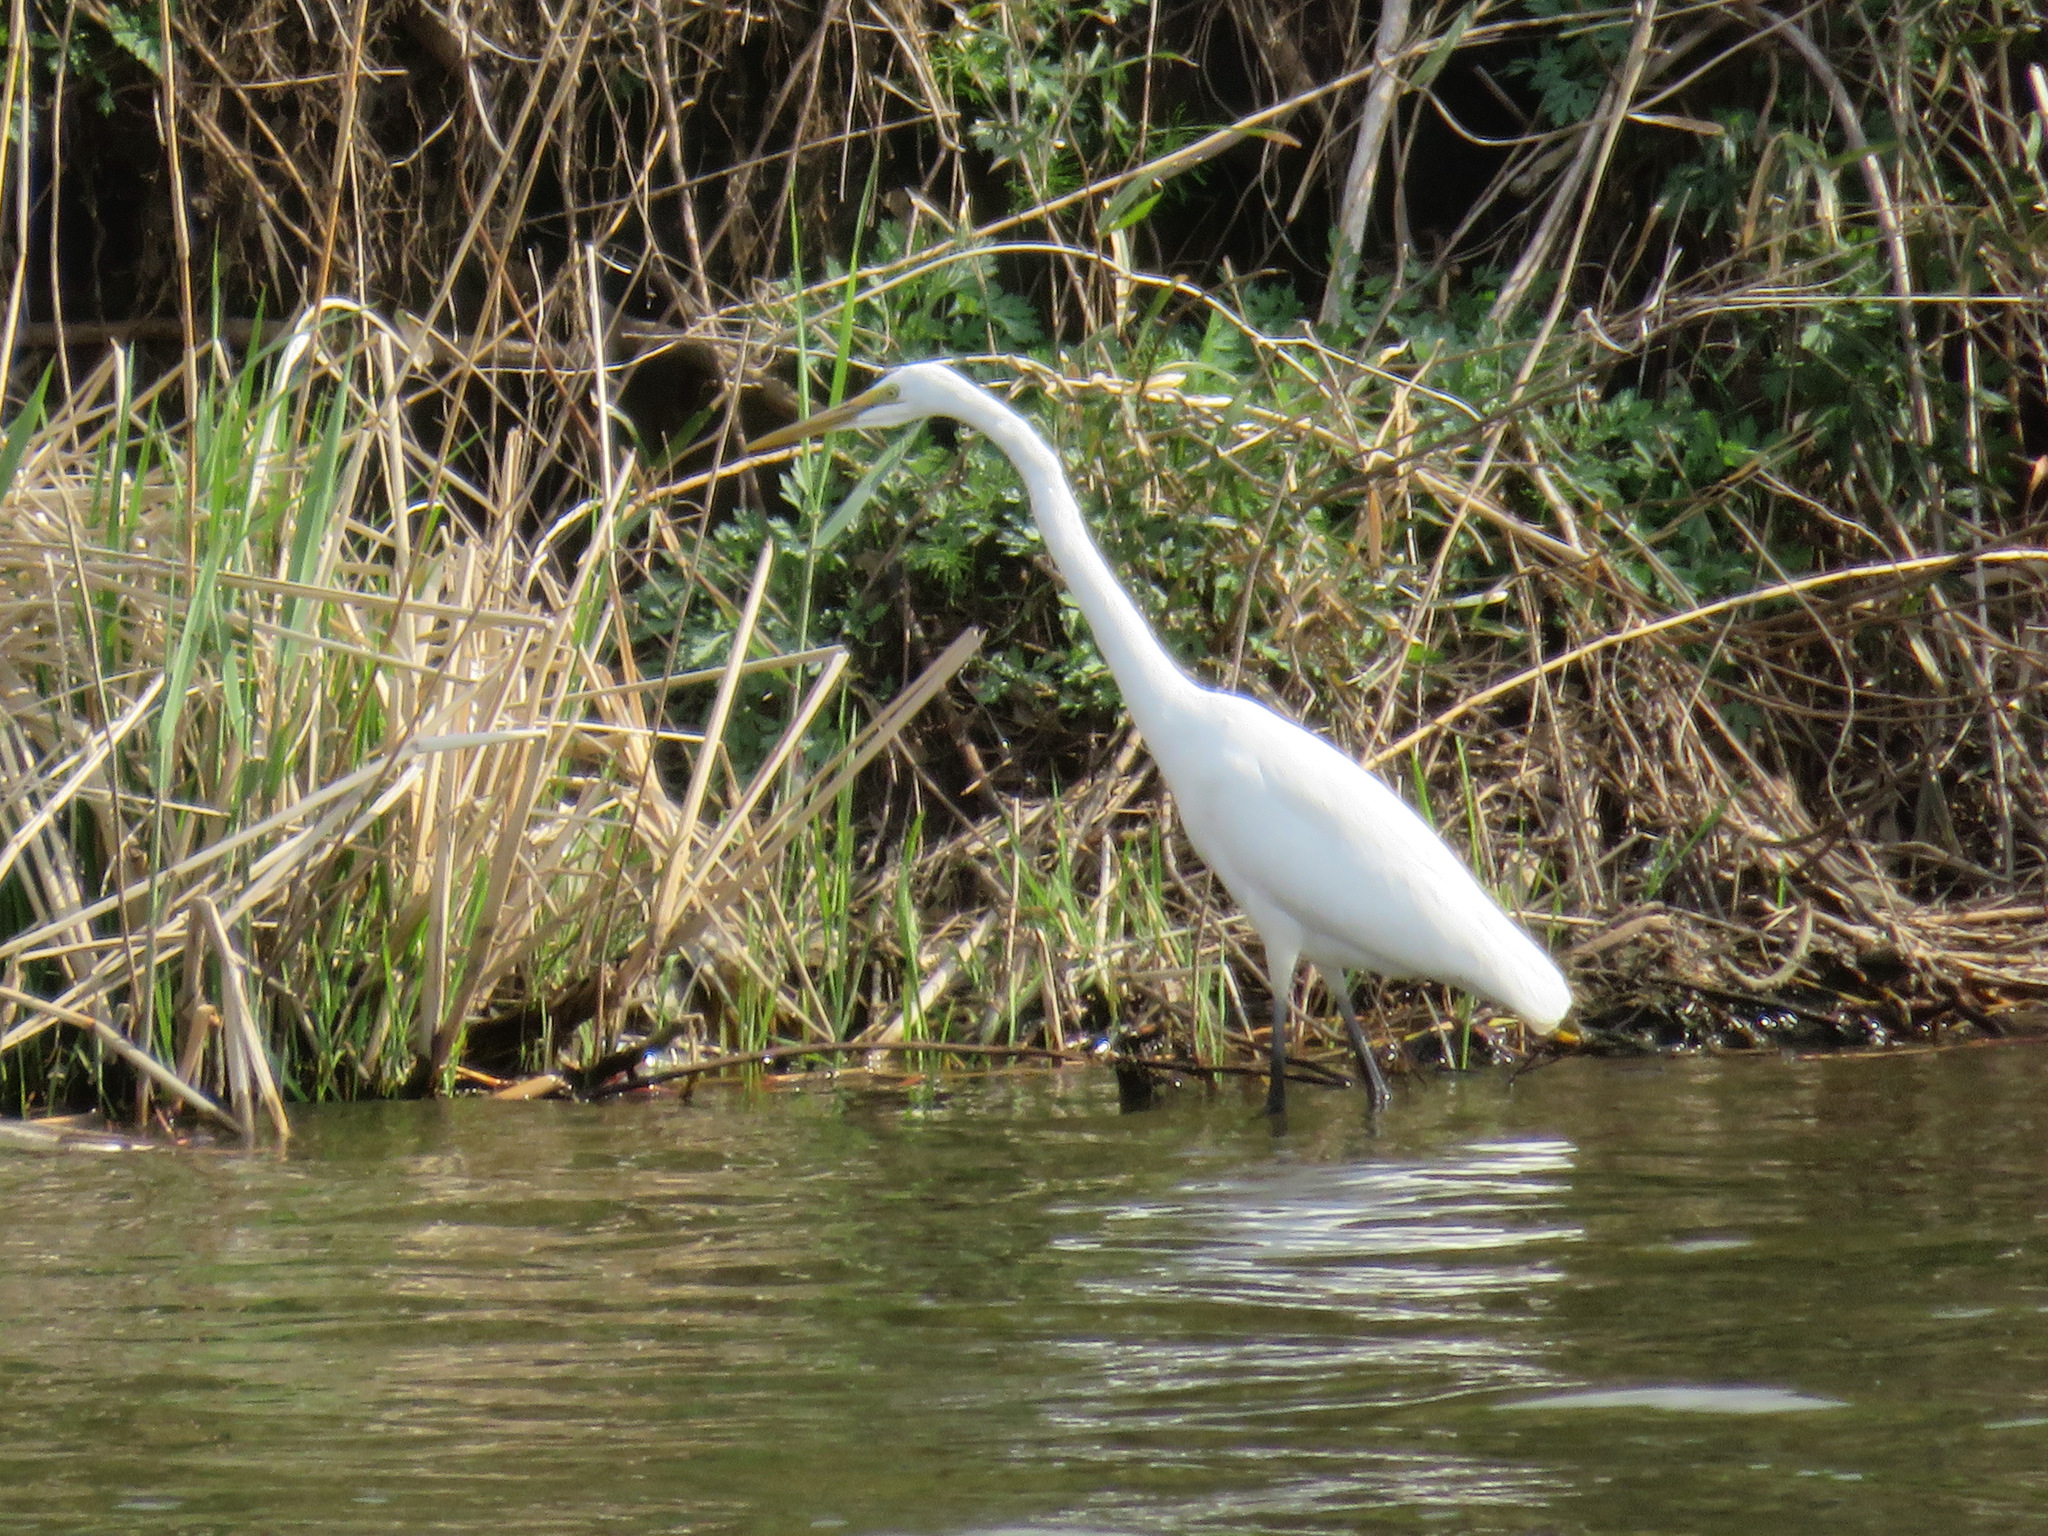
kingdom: Animalia
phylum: Chordata
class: Aves
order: Pelecaniformes
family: Ardeidae
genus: Ardea
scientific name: Ardea alba
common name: Great egret
